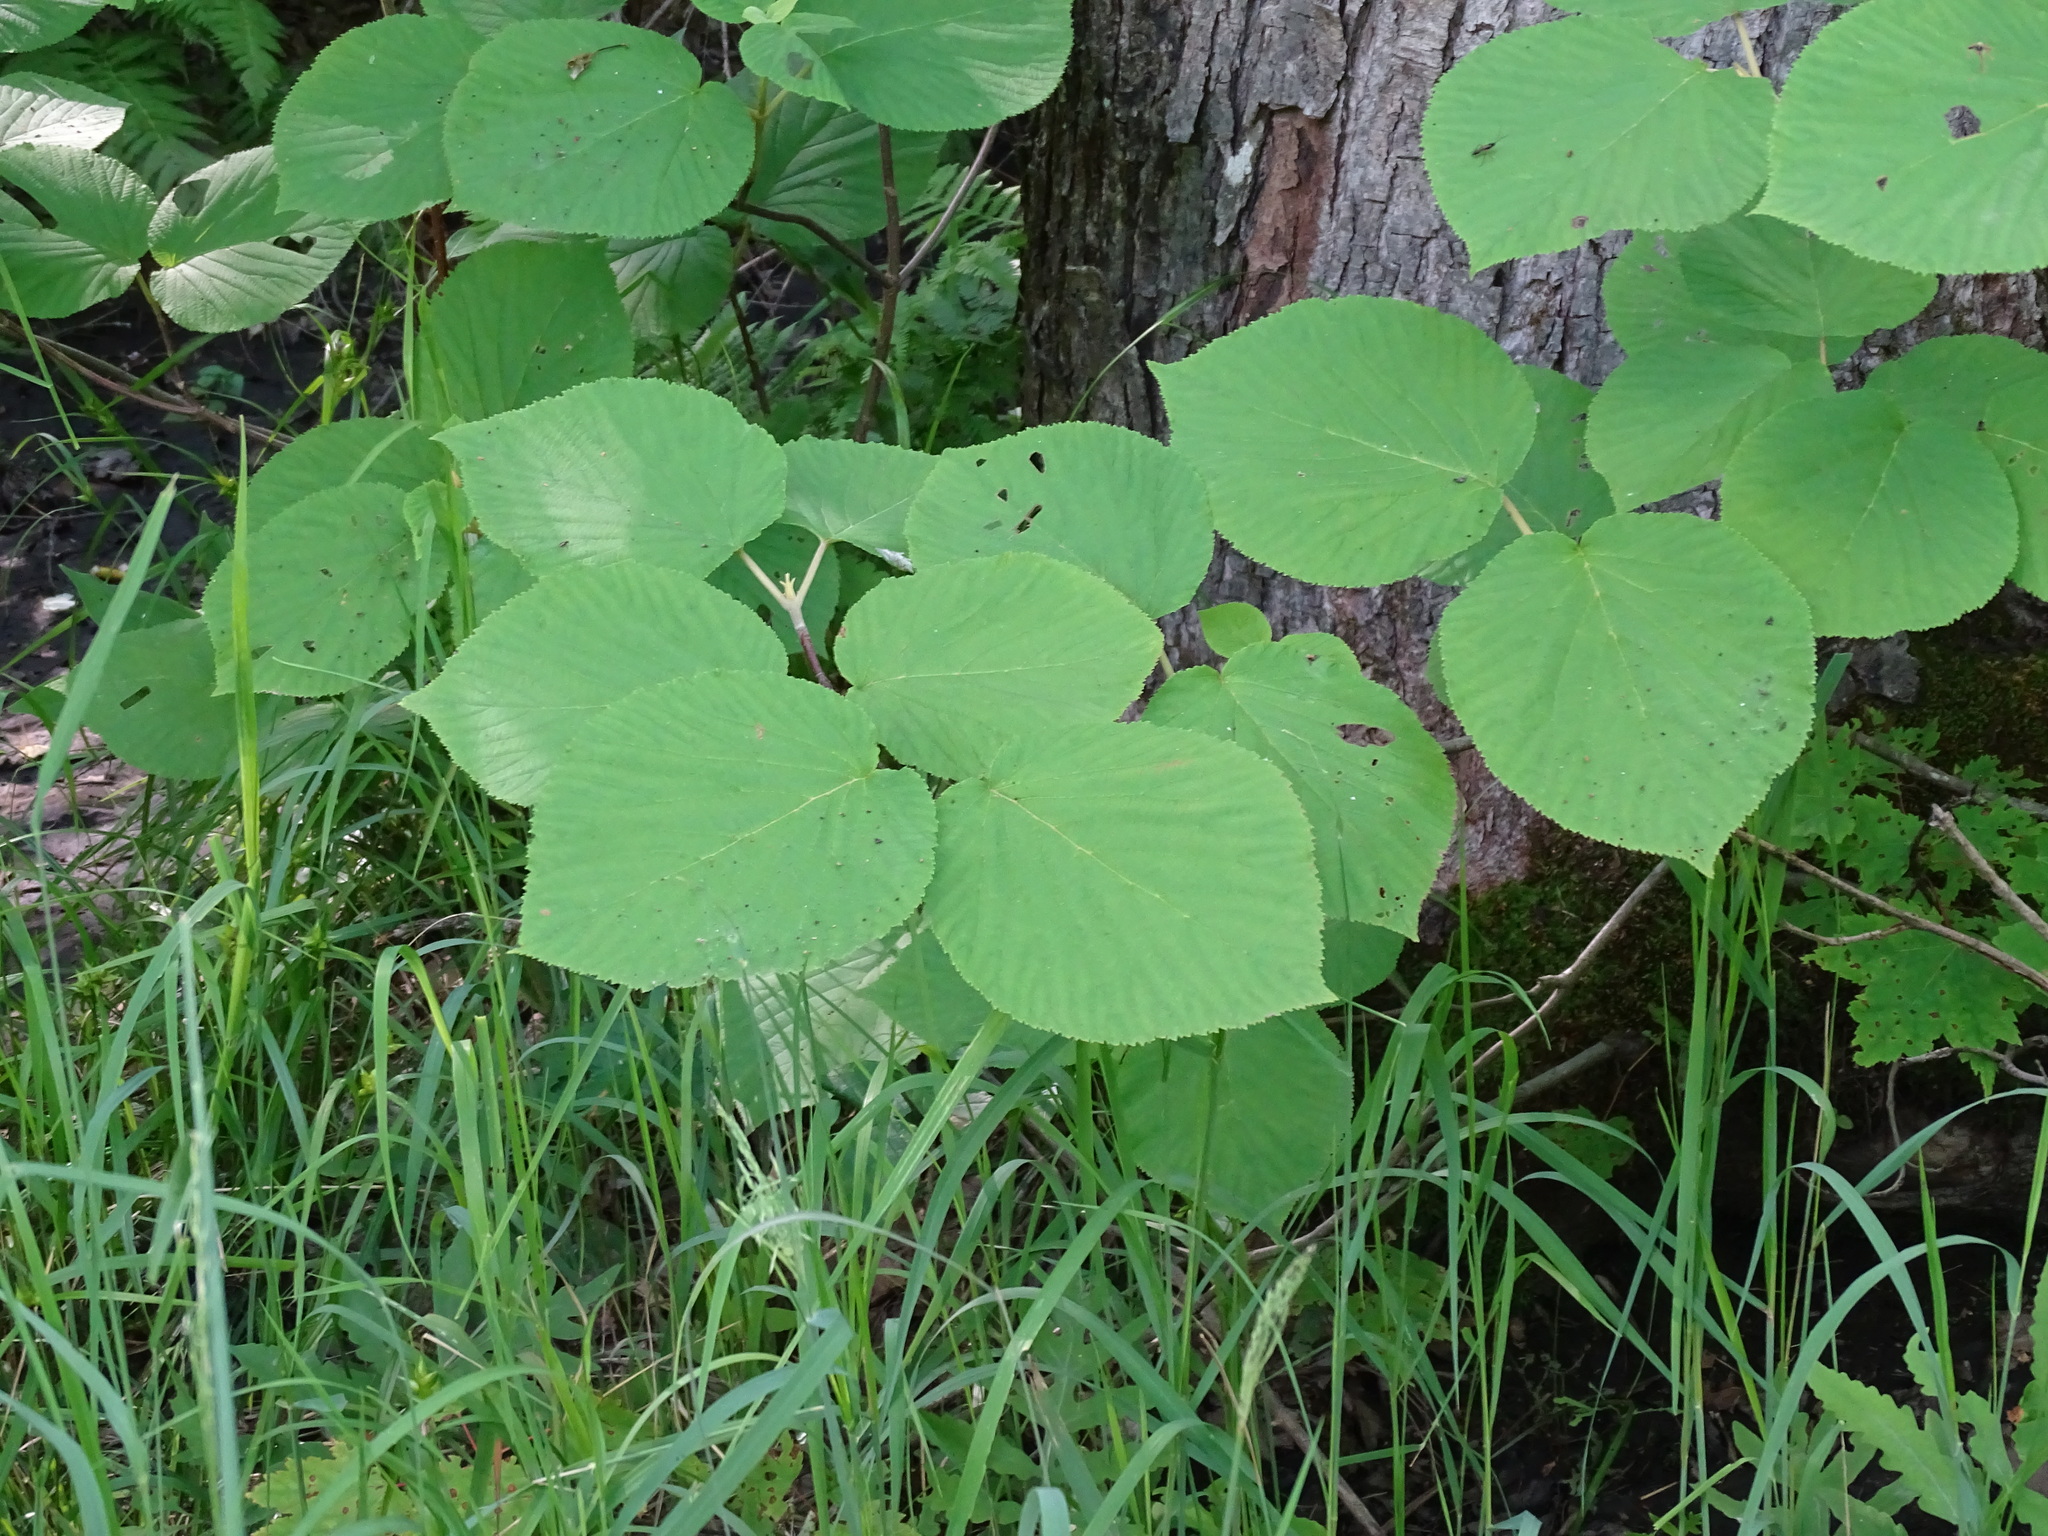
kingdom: Plantae
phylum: Tracheophyta
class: Magnoliopsida
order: Dipsacales
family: Viburnaceae
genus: Viburnum
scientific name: Viburnum lantanoides
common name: Hobblebush
